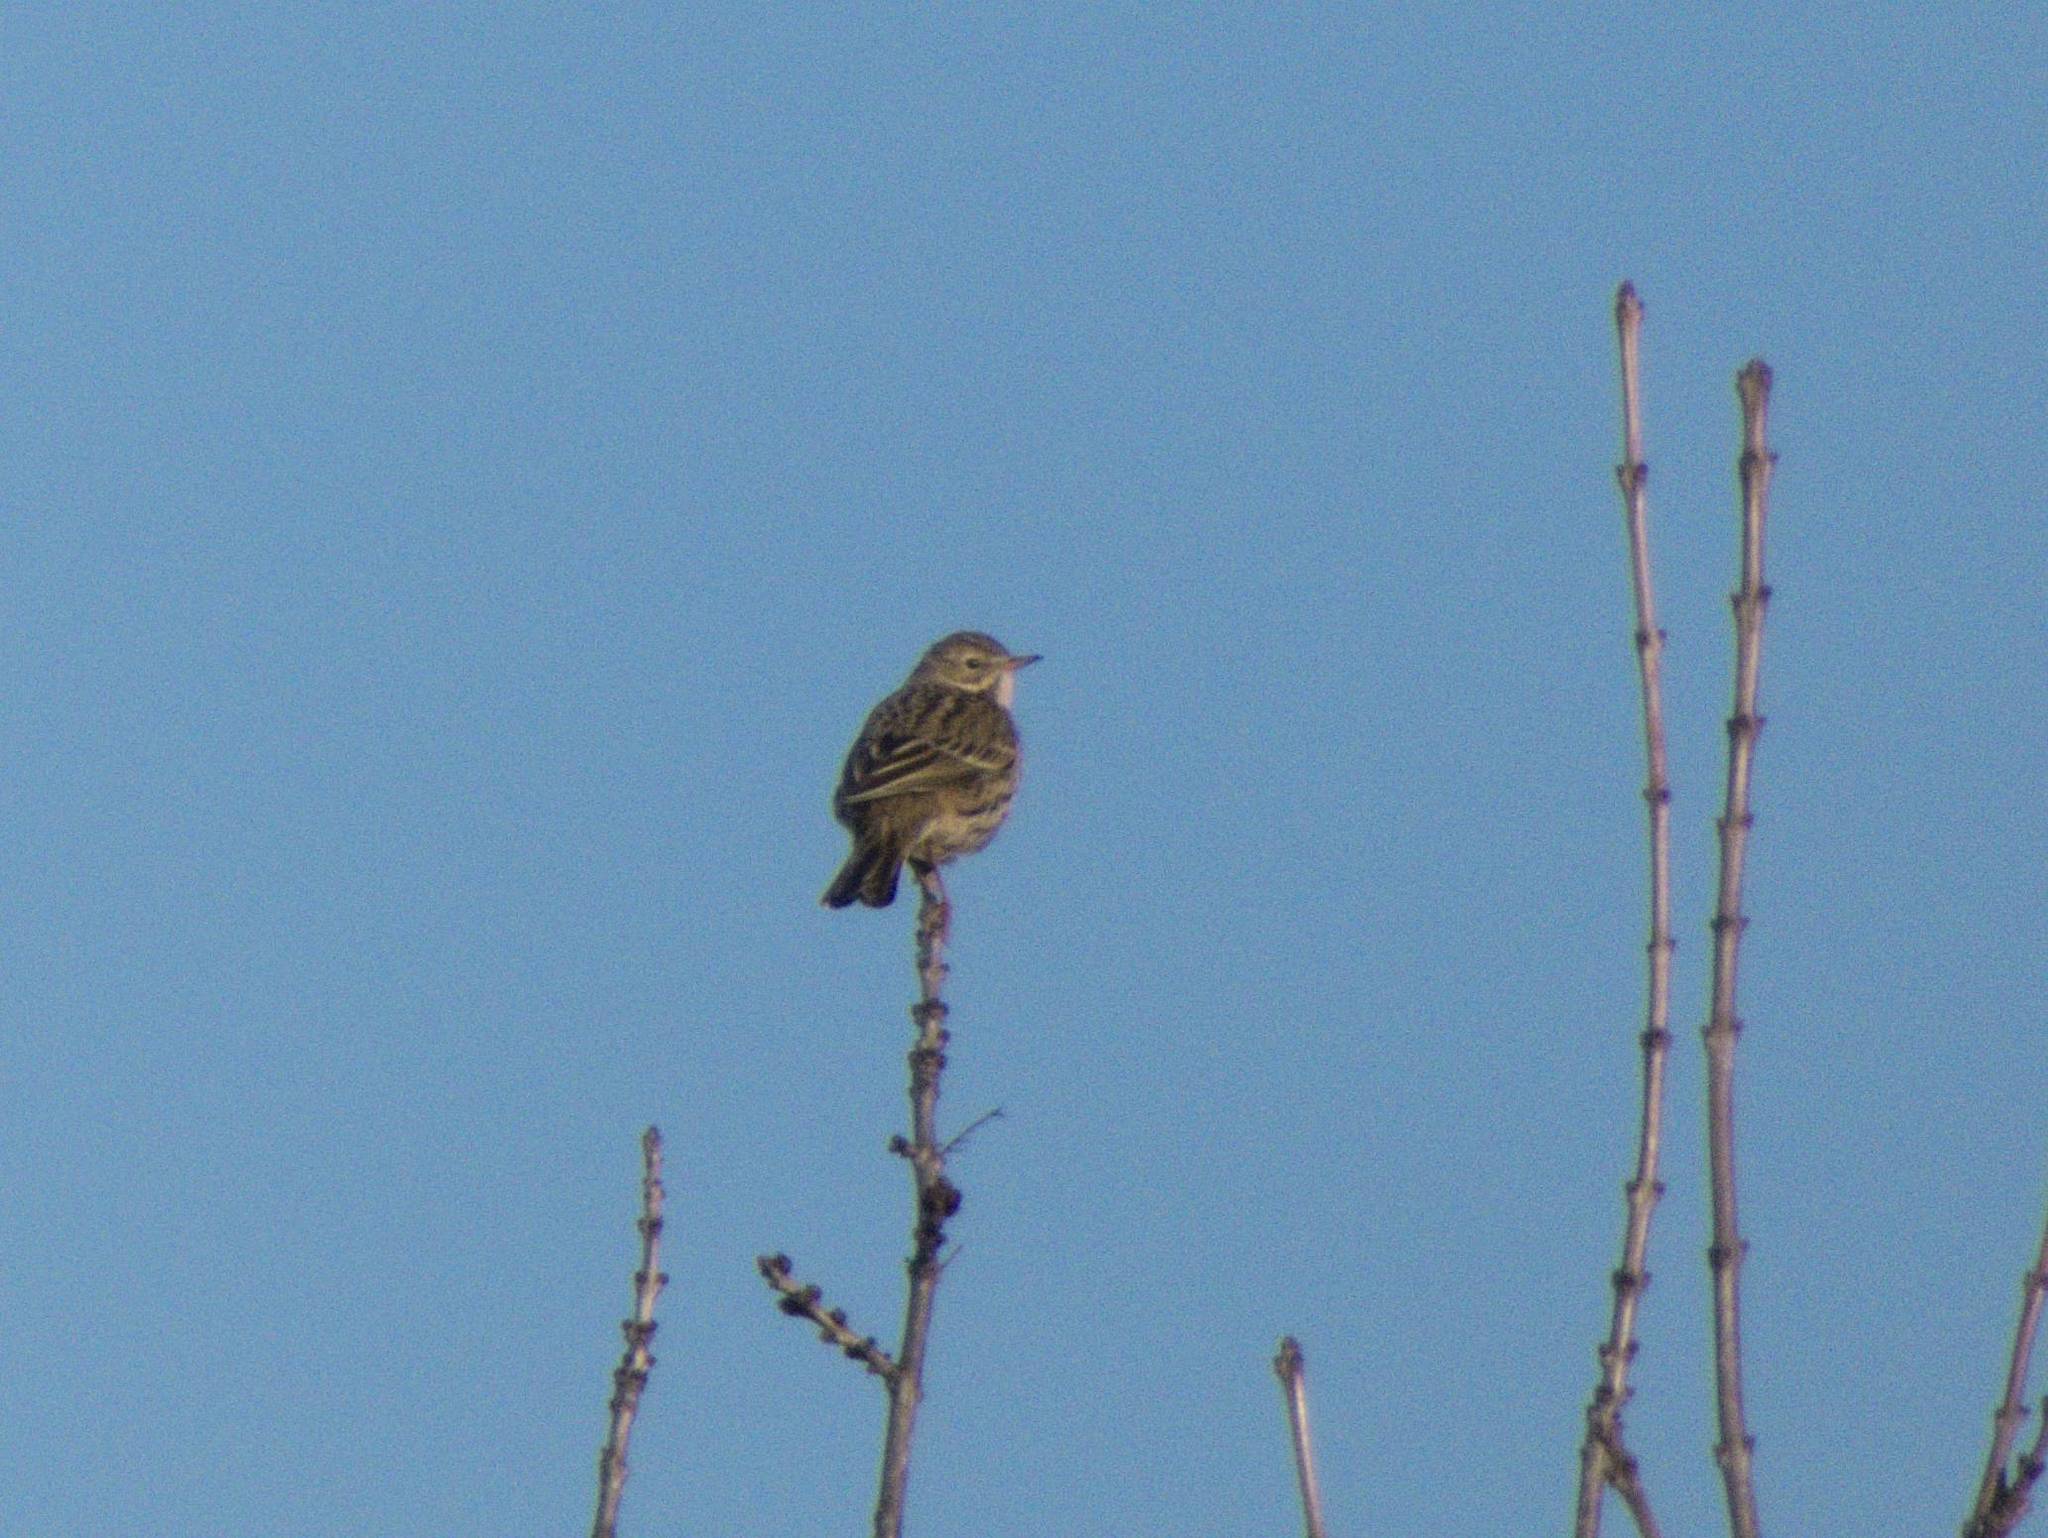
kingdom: Animalia
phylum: Chordata
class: Aves
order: Passeriformes
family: Motacillidae
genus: Anthus
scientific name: Anthus pratensis
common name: Meadow pipit
